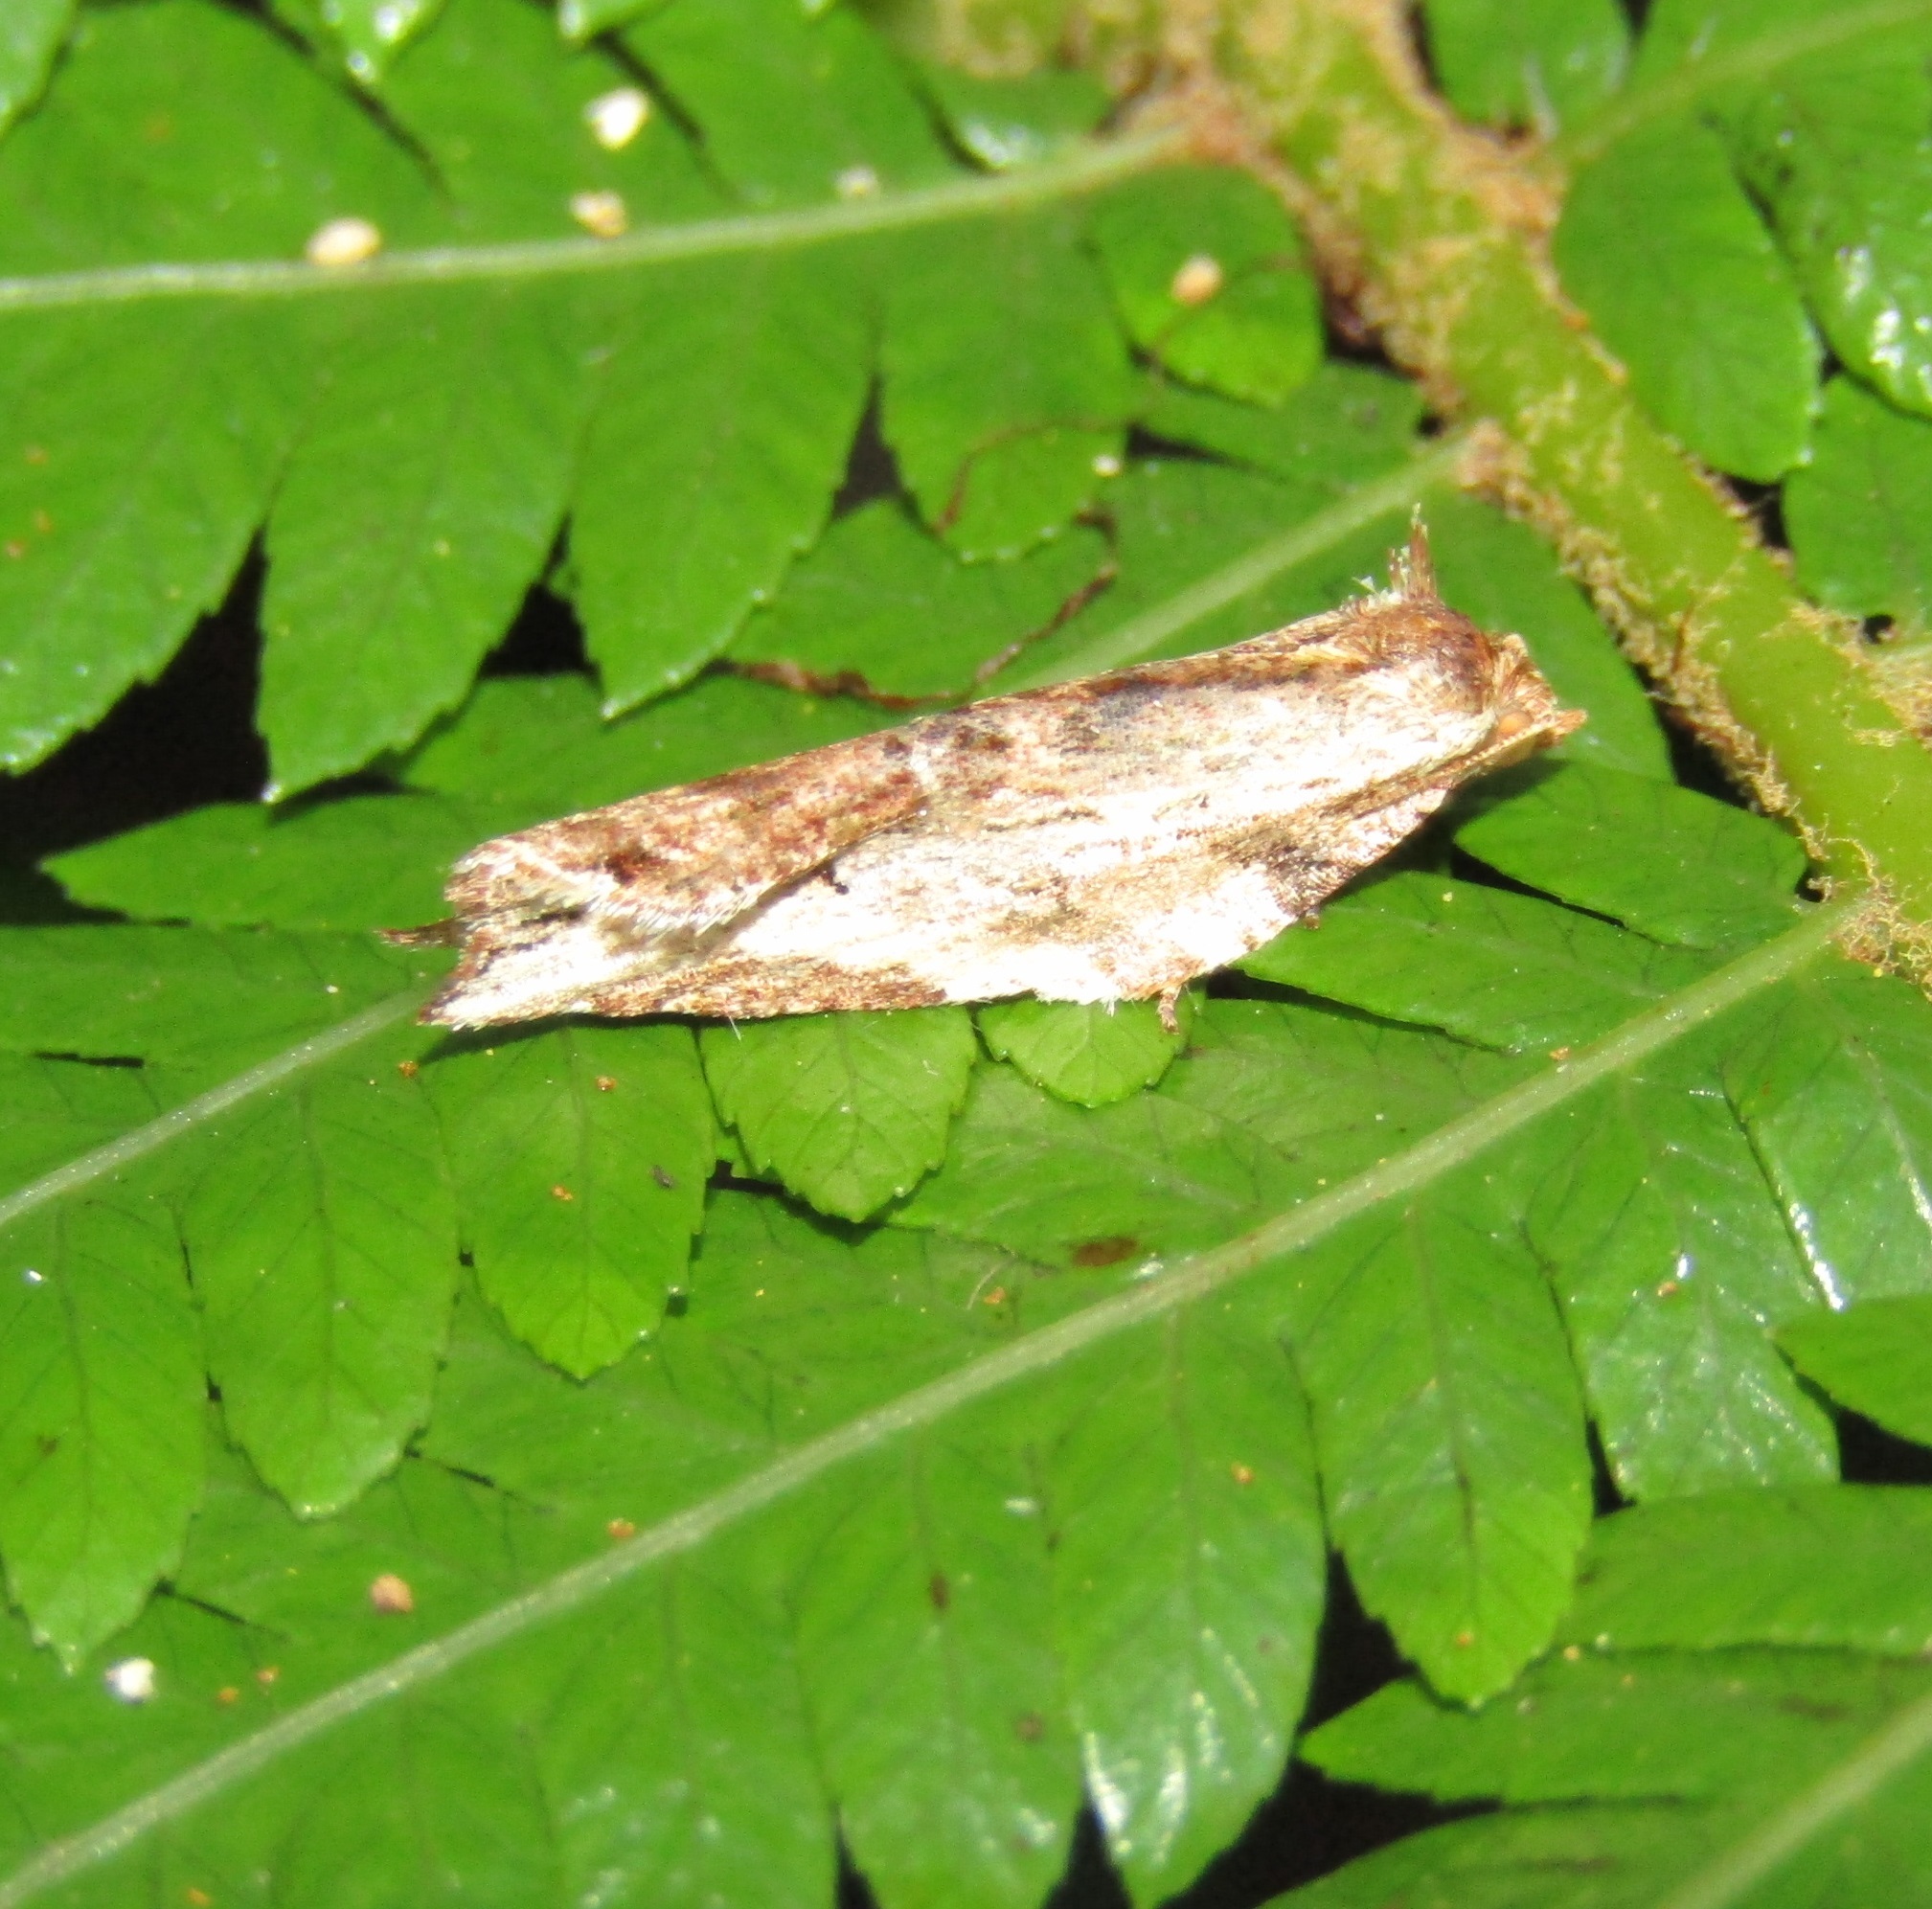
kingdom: Animalia
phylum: Arthropoda
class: Insecta
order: Lepidoptera
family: Tortricidae
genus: Epalxiphora
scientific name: Epalxiphora axenana
